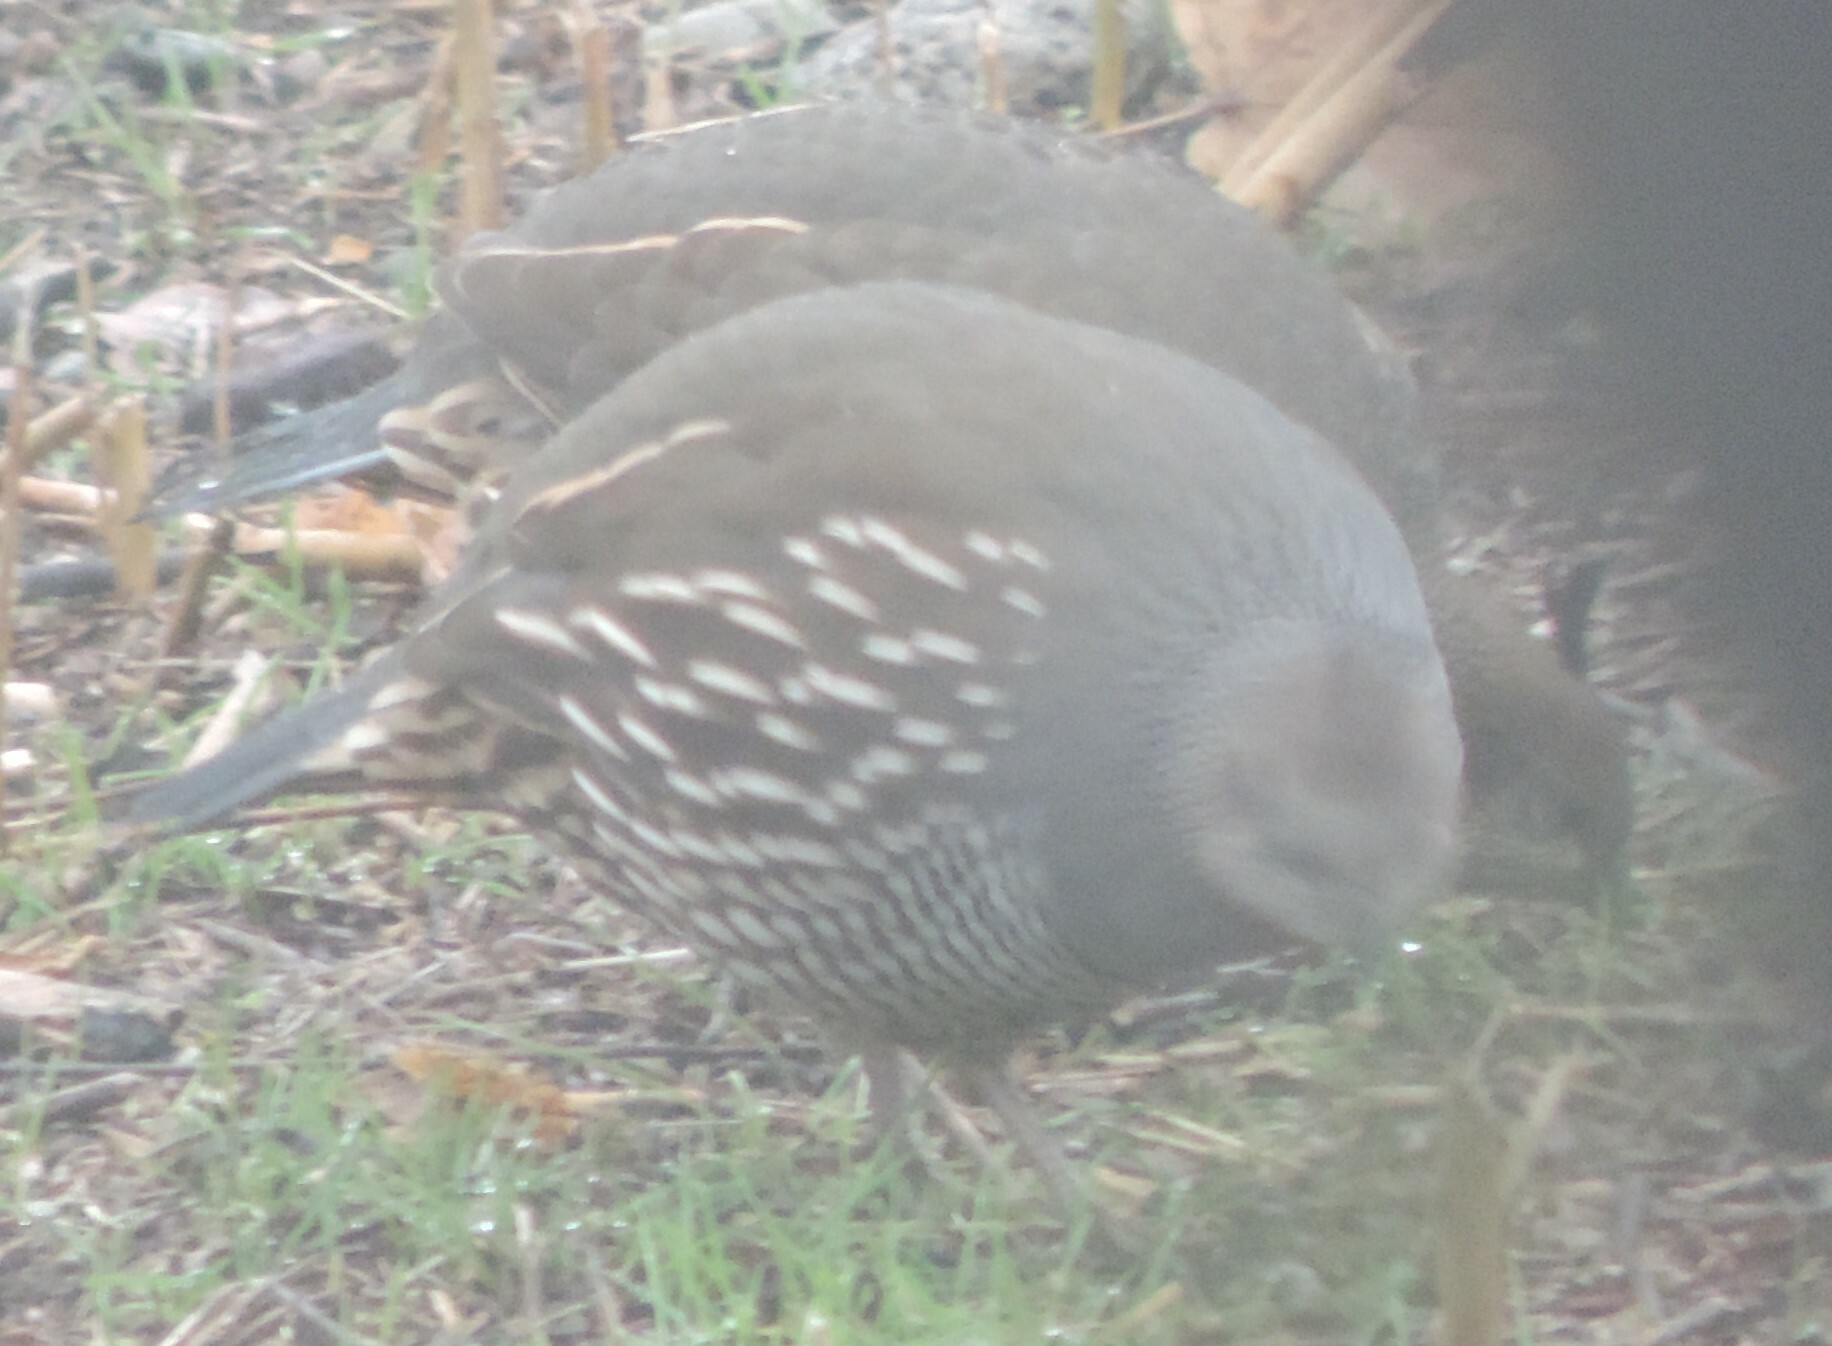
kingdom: Animalia
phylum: Chordata
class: Aves
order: Galliformes
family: Odontophoridae
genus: Callipepla
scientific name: Callipepla californica
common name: California quail
